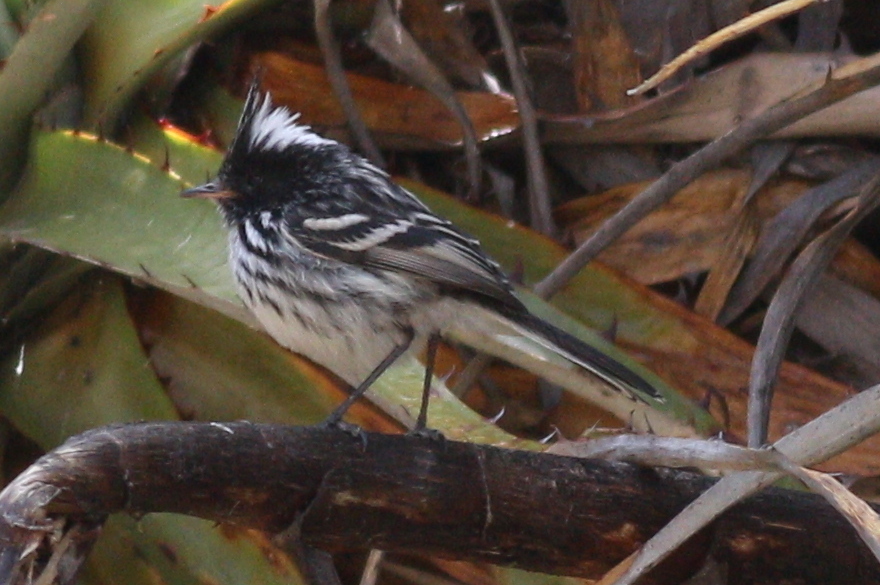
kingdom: Animalia
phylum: Chordata
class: Aves
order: Passeriformes
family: Tyrannidae
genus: Anairetes
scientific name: Anairetes nigrocristatus
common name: Black-crested tit-tyrant
